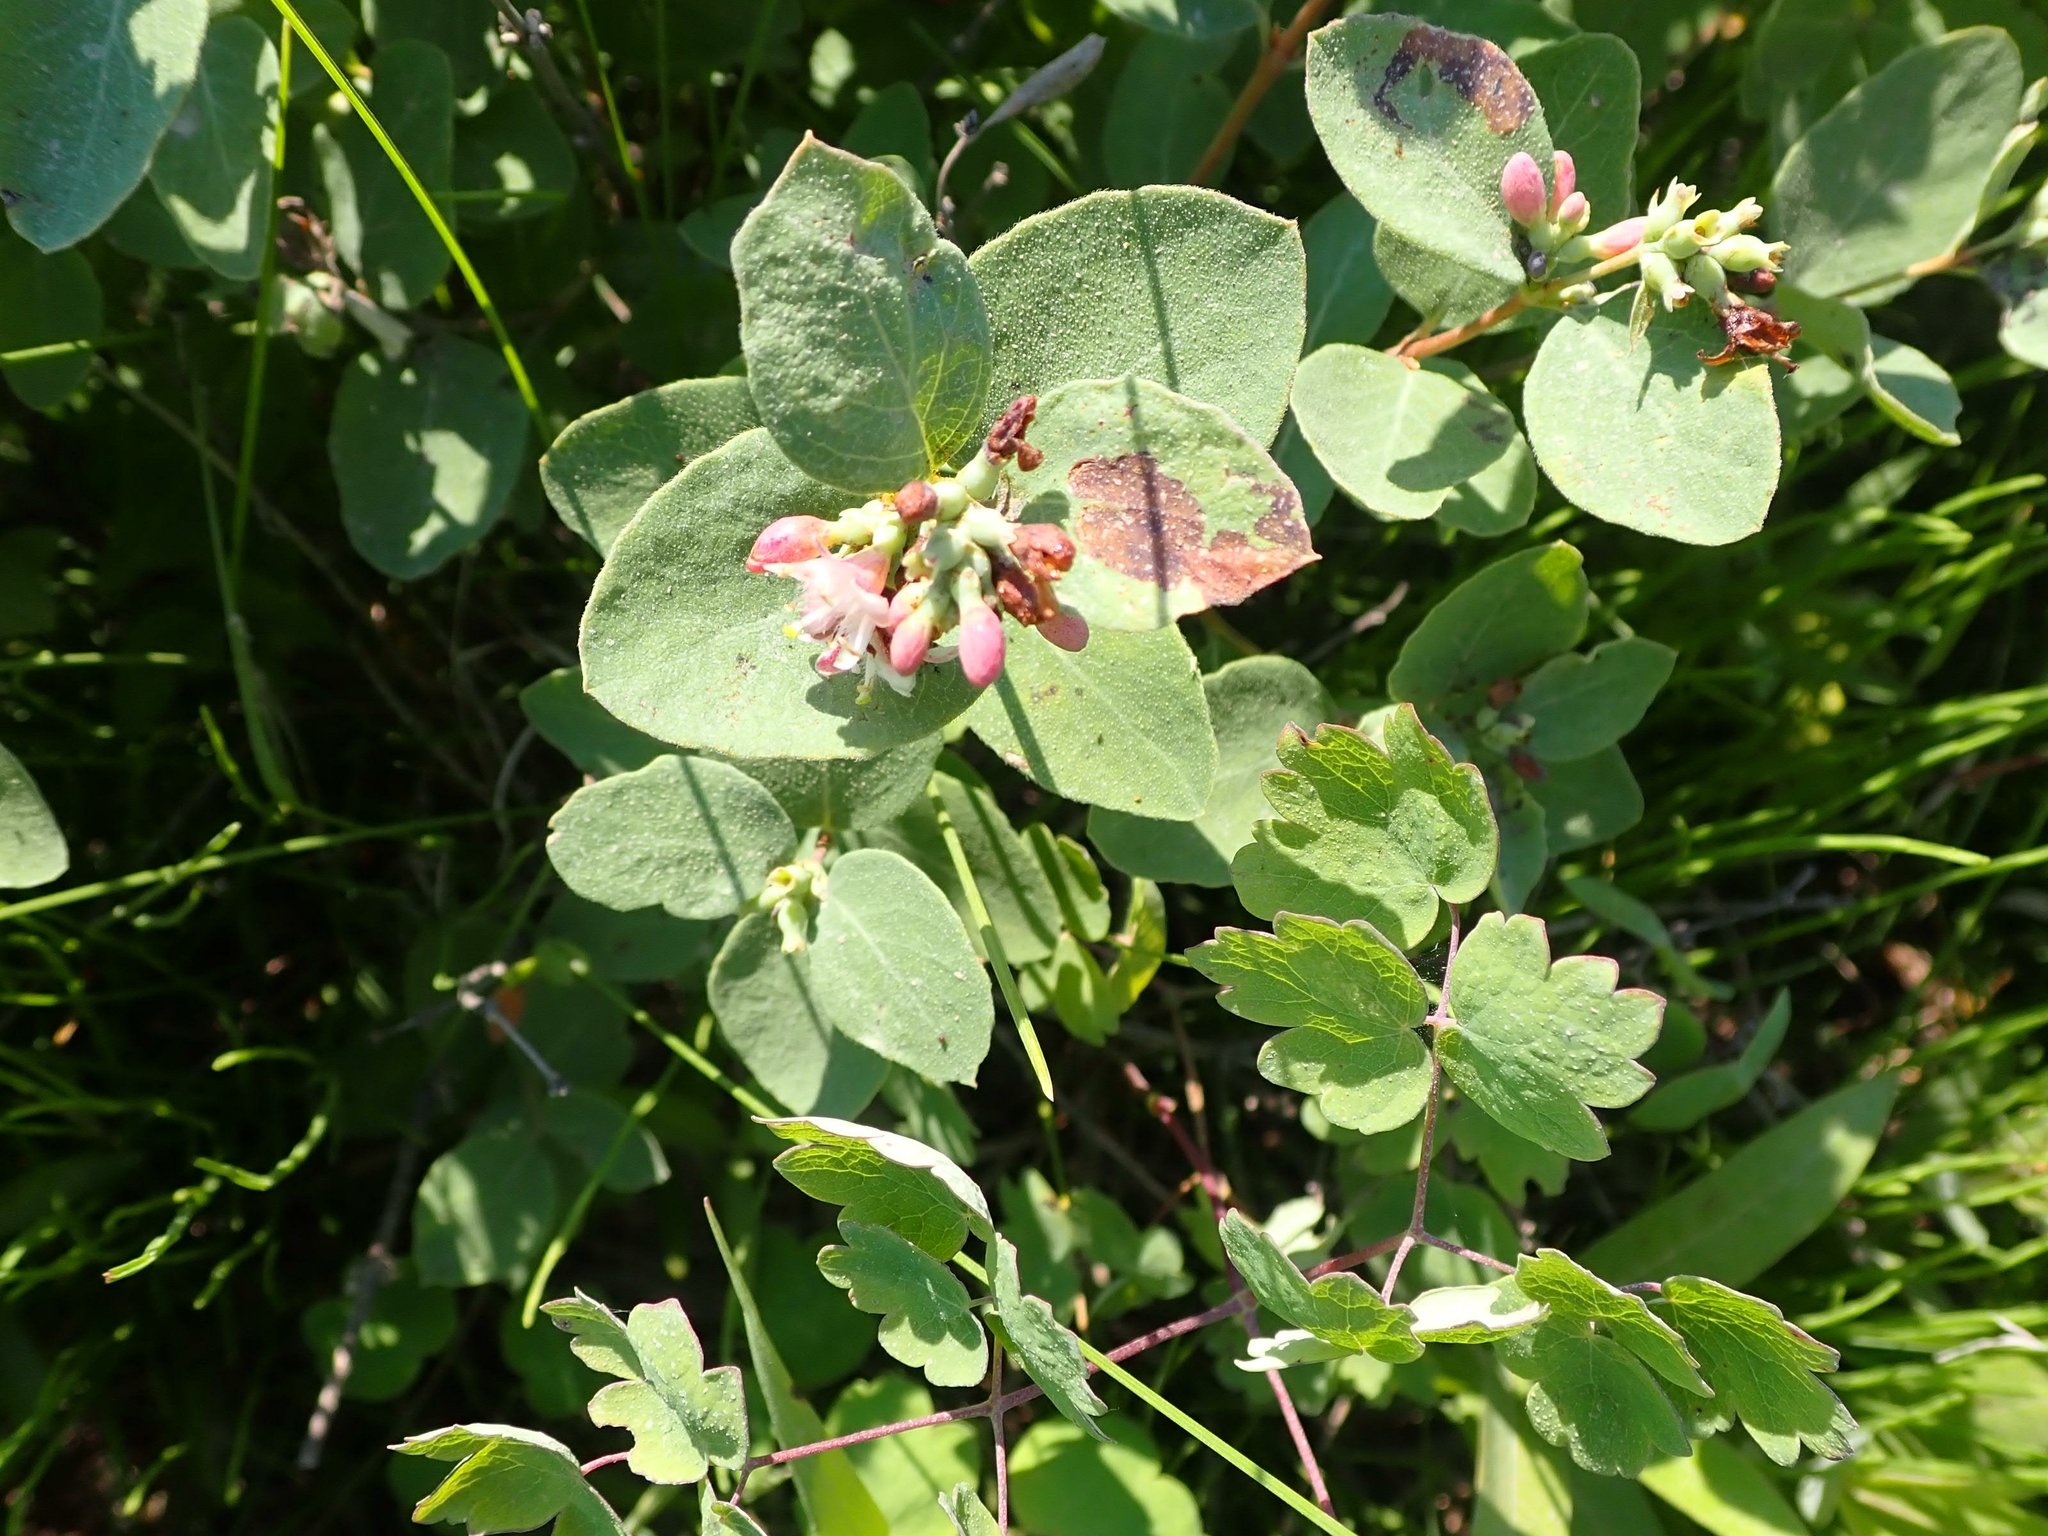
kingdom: Plantae
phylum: Tracheophyta
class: Magnoliopsida
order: Dipsacales
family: Caprifoliaceae
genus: Symphoricarpos
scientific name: Symphoricarpos occidentalis
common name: Wolfberry
